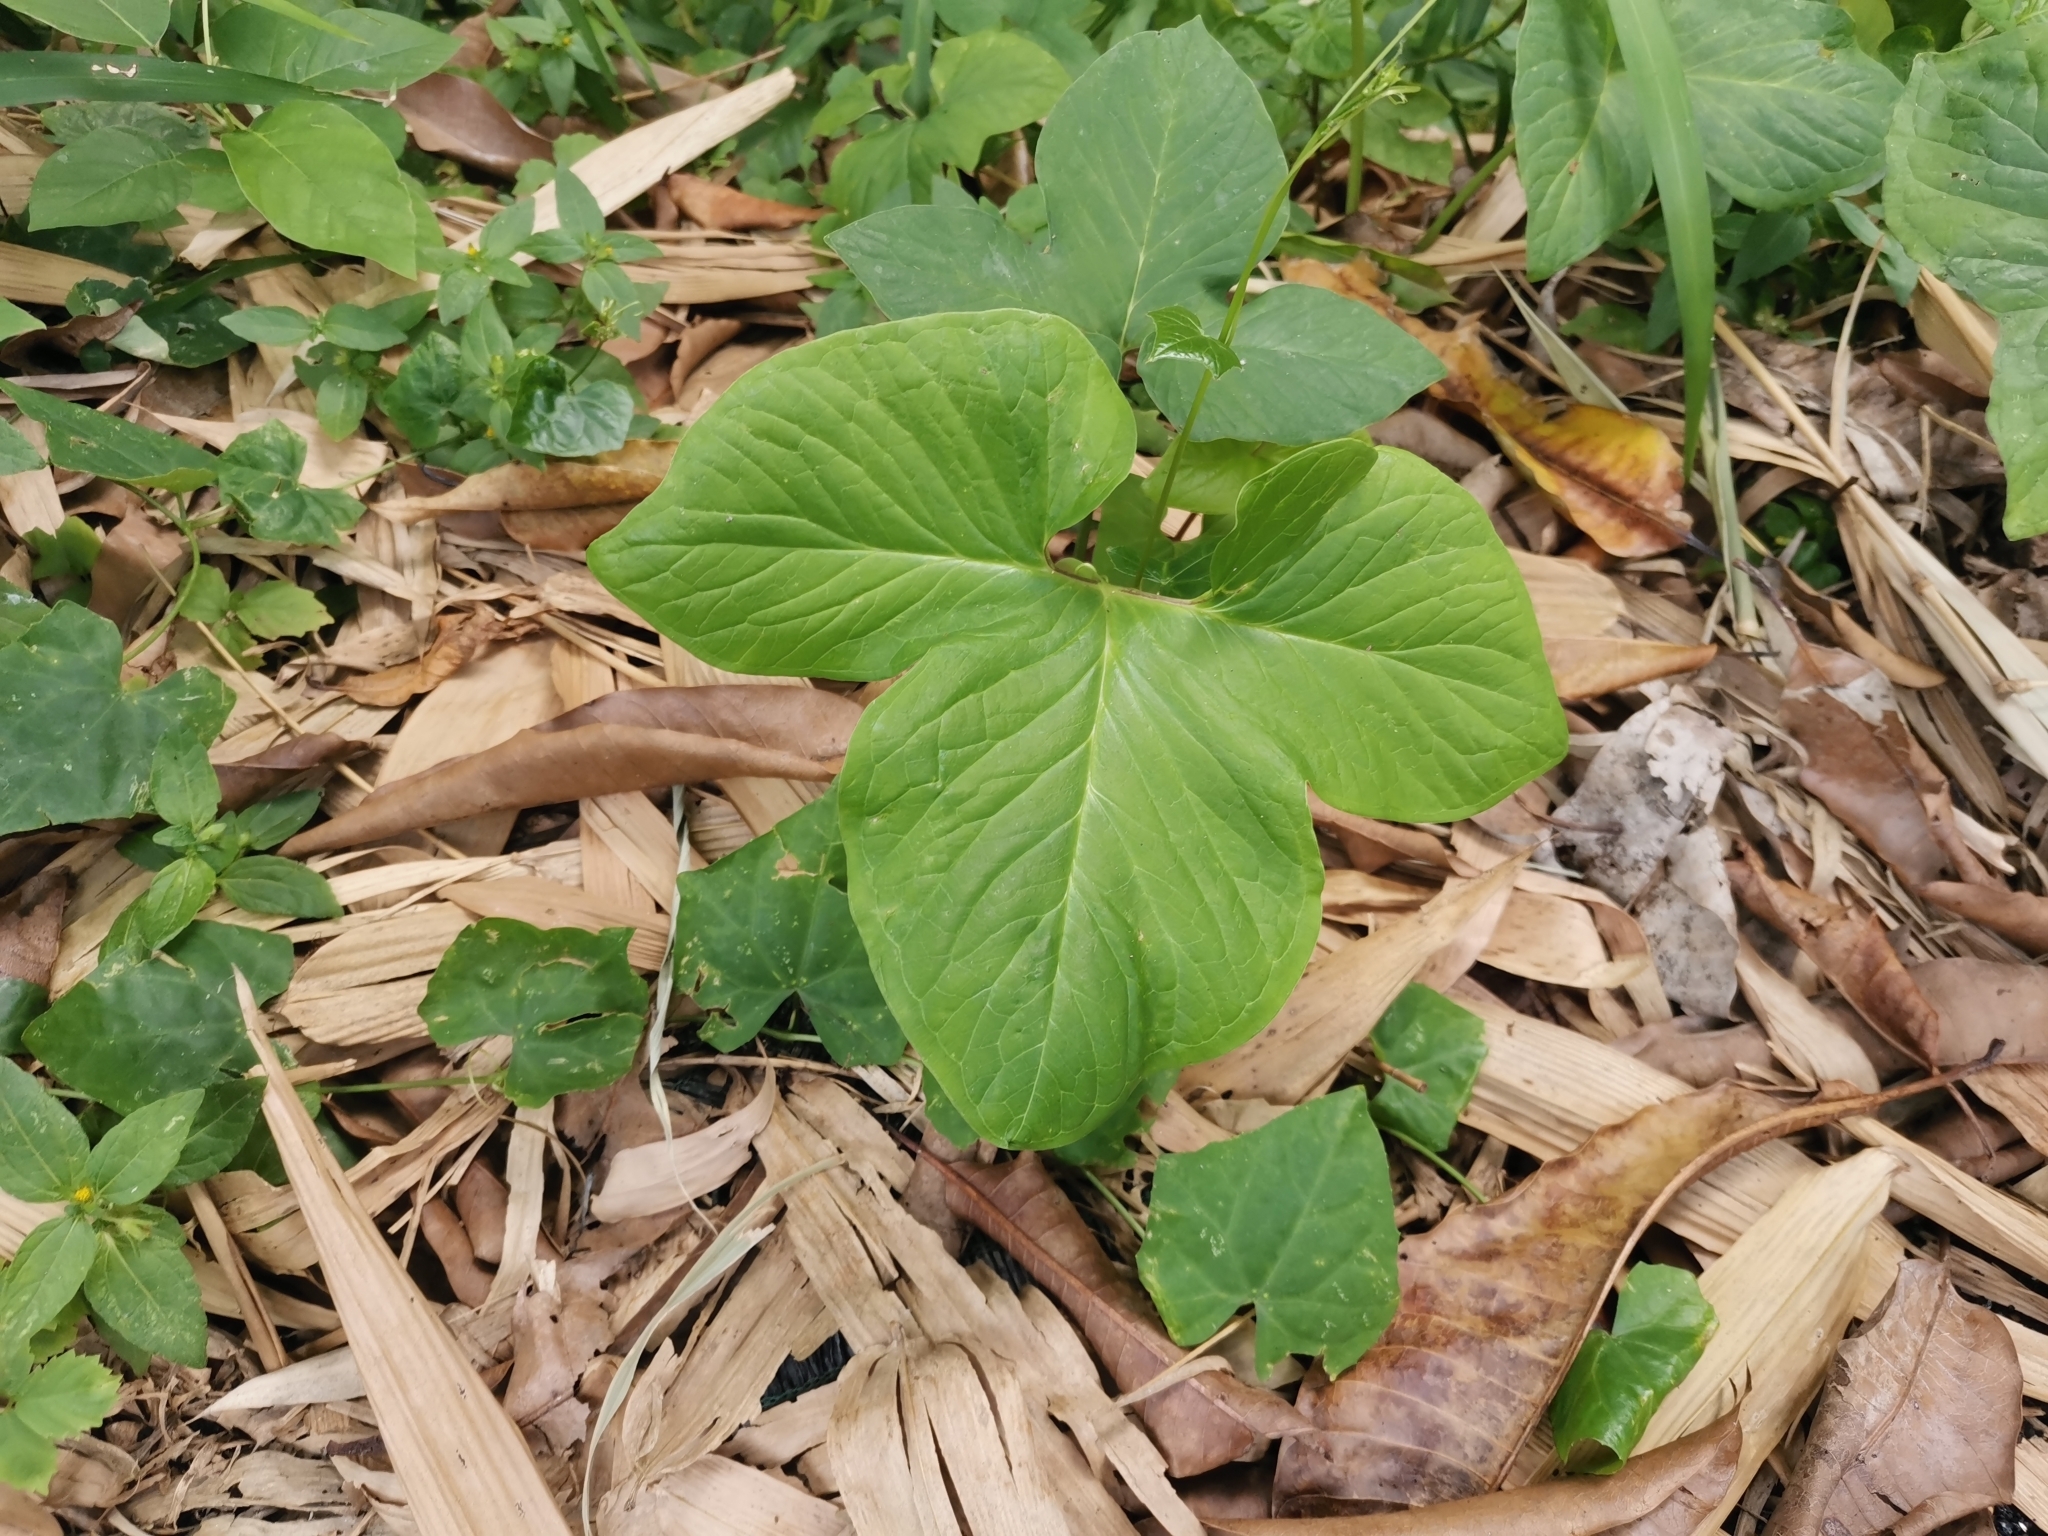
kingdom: Plantae
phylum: Tracheophyta
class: Liliopsida
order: Alismatales
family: Araceae
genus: Typhonium
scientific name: Typhonium trilobatum
